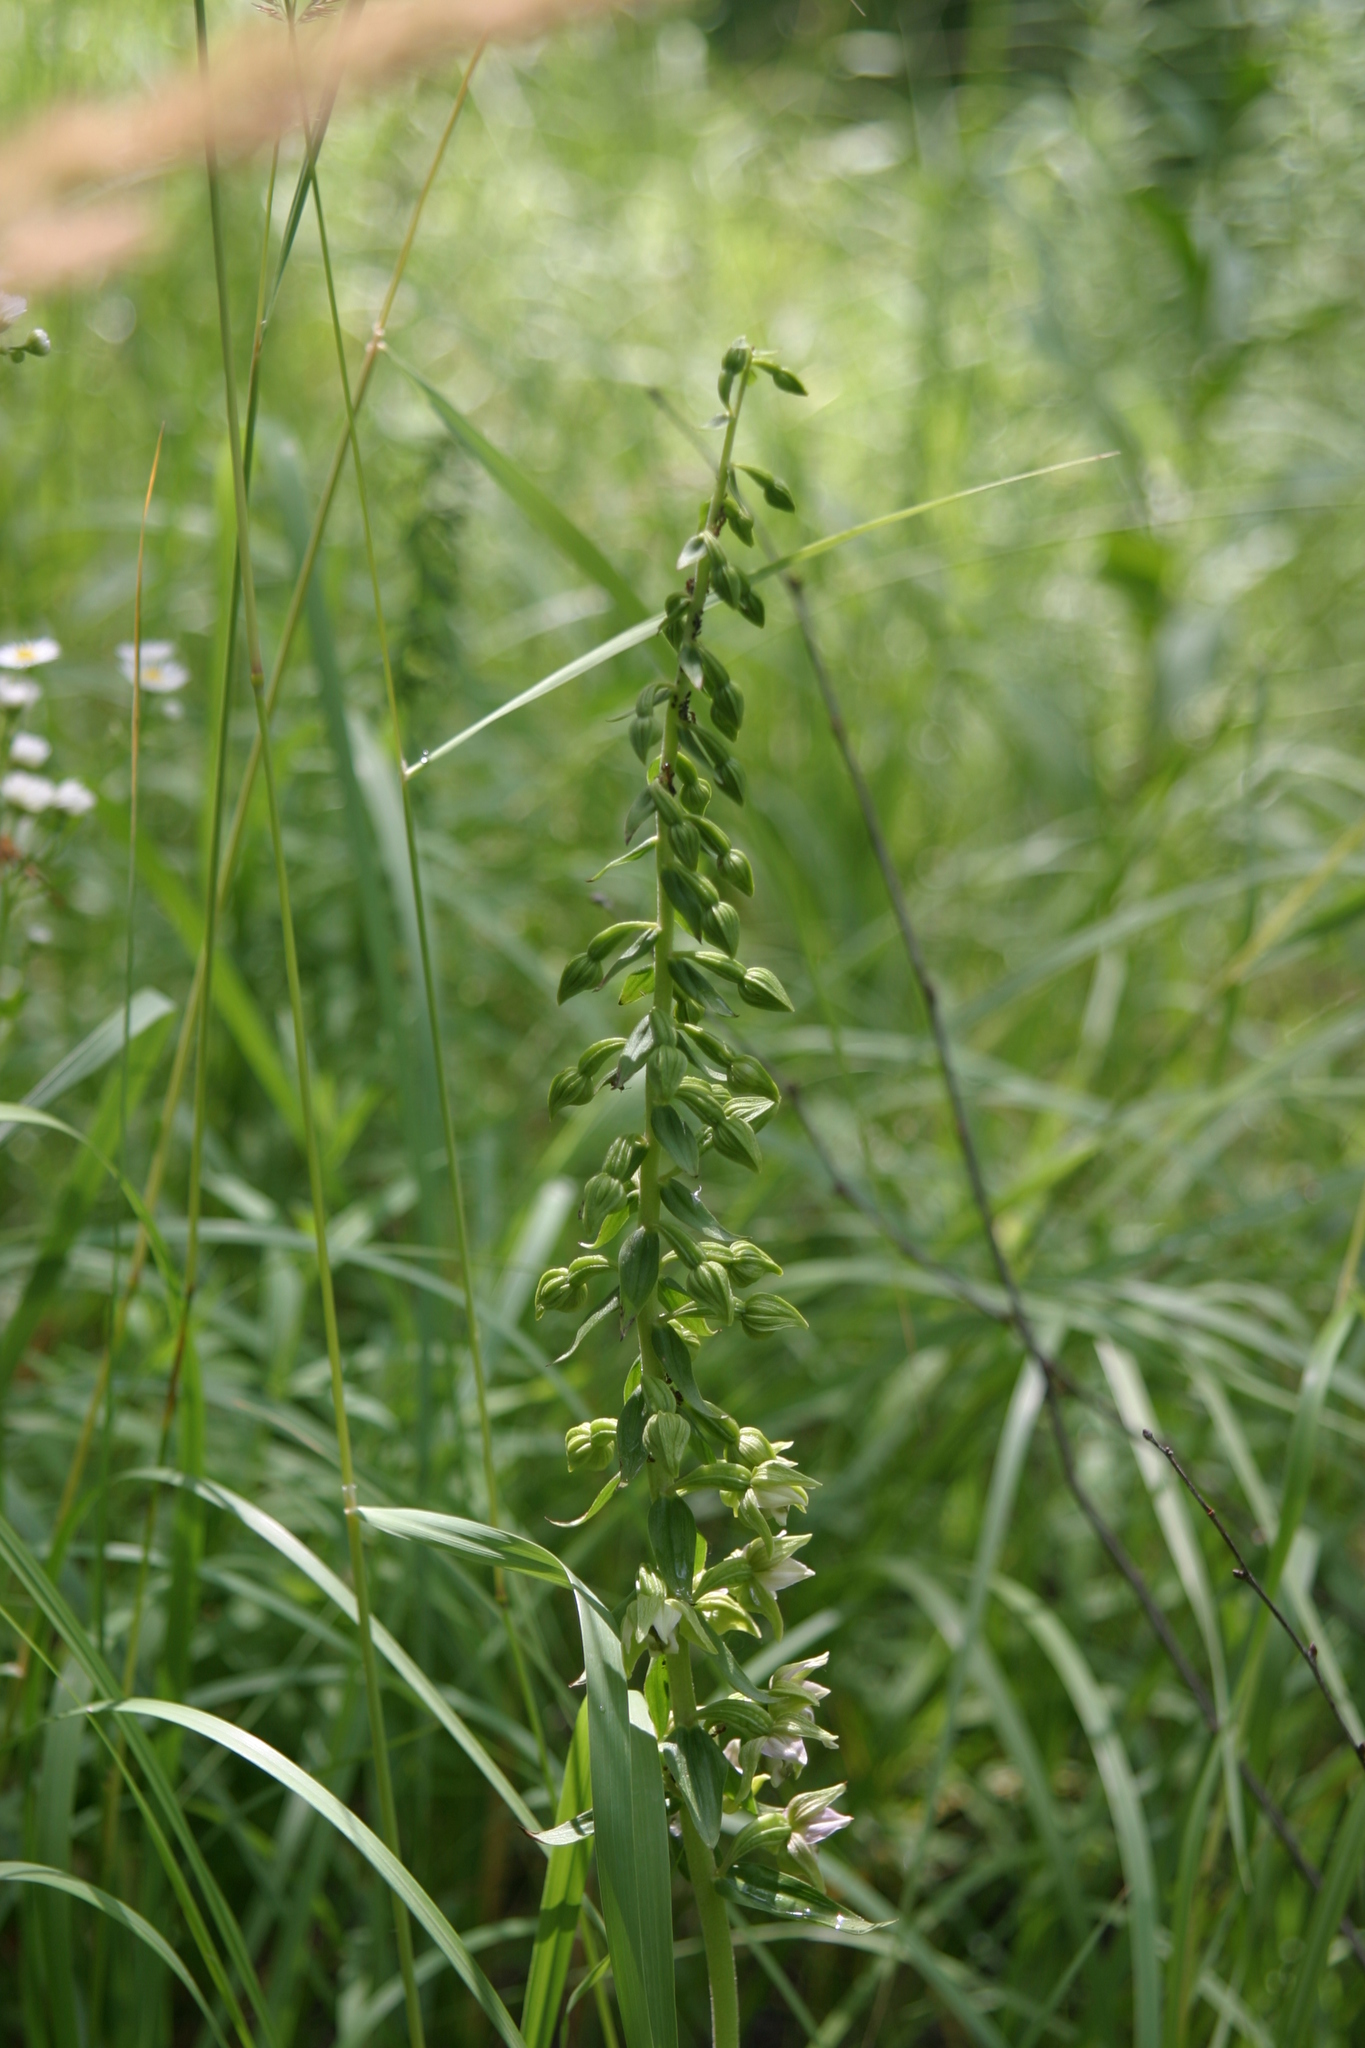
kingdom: Plantae
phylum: Tracheophyta
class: Liliopsida
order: Asparagales
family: Orchidaceae
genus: Epipactis
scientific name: Epipactis helleborine
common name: Broad-leaved helleborine
